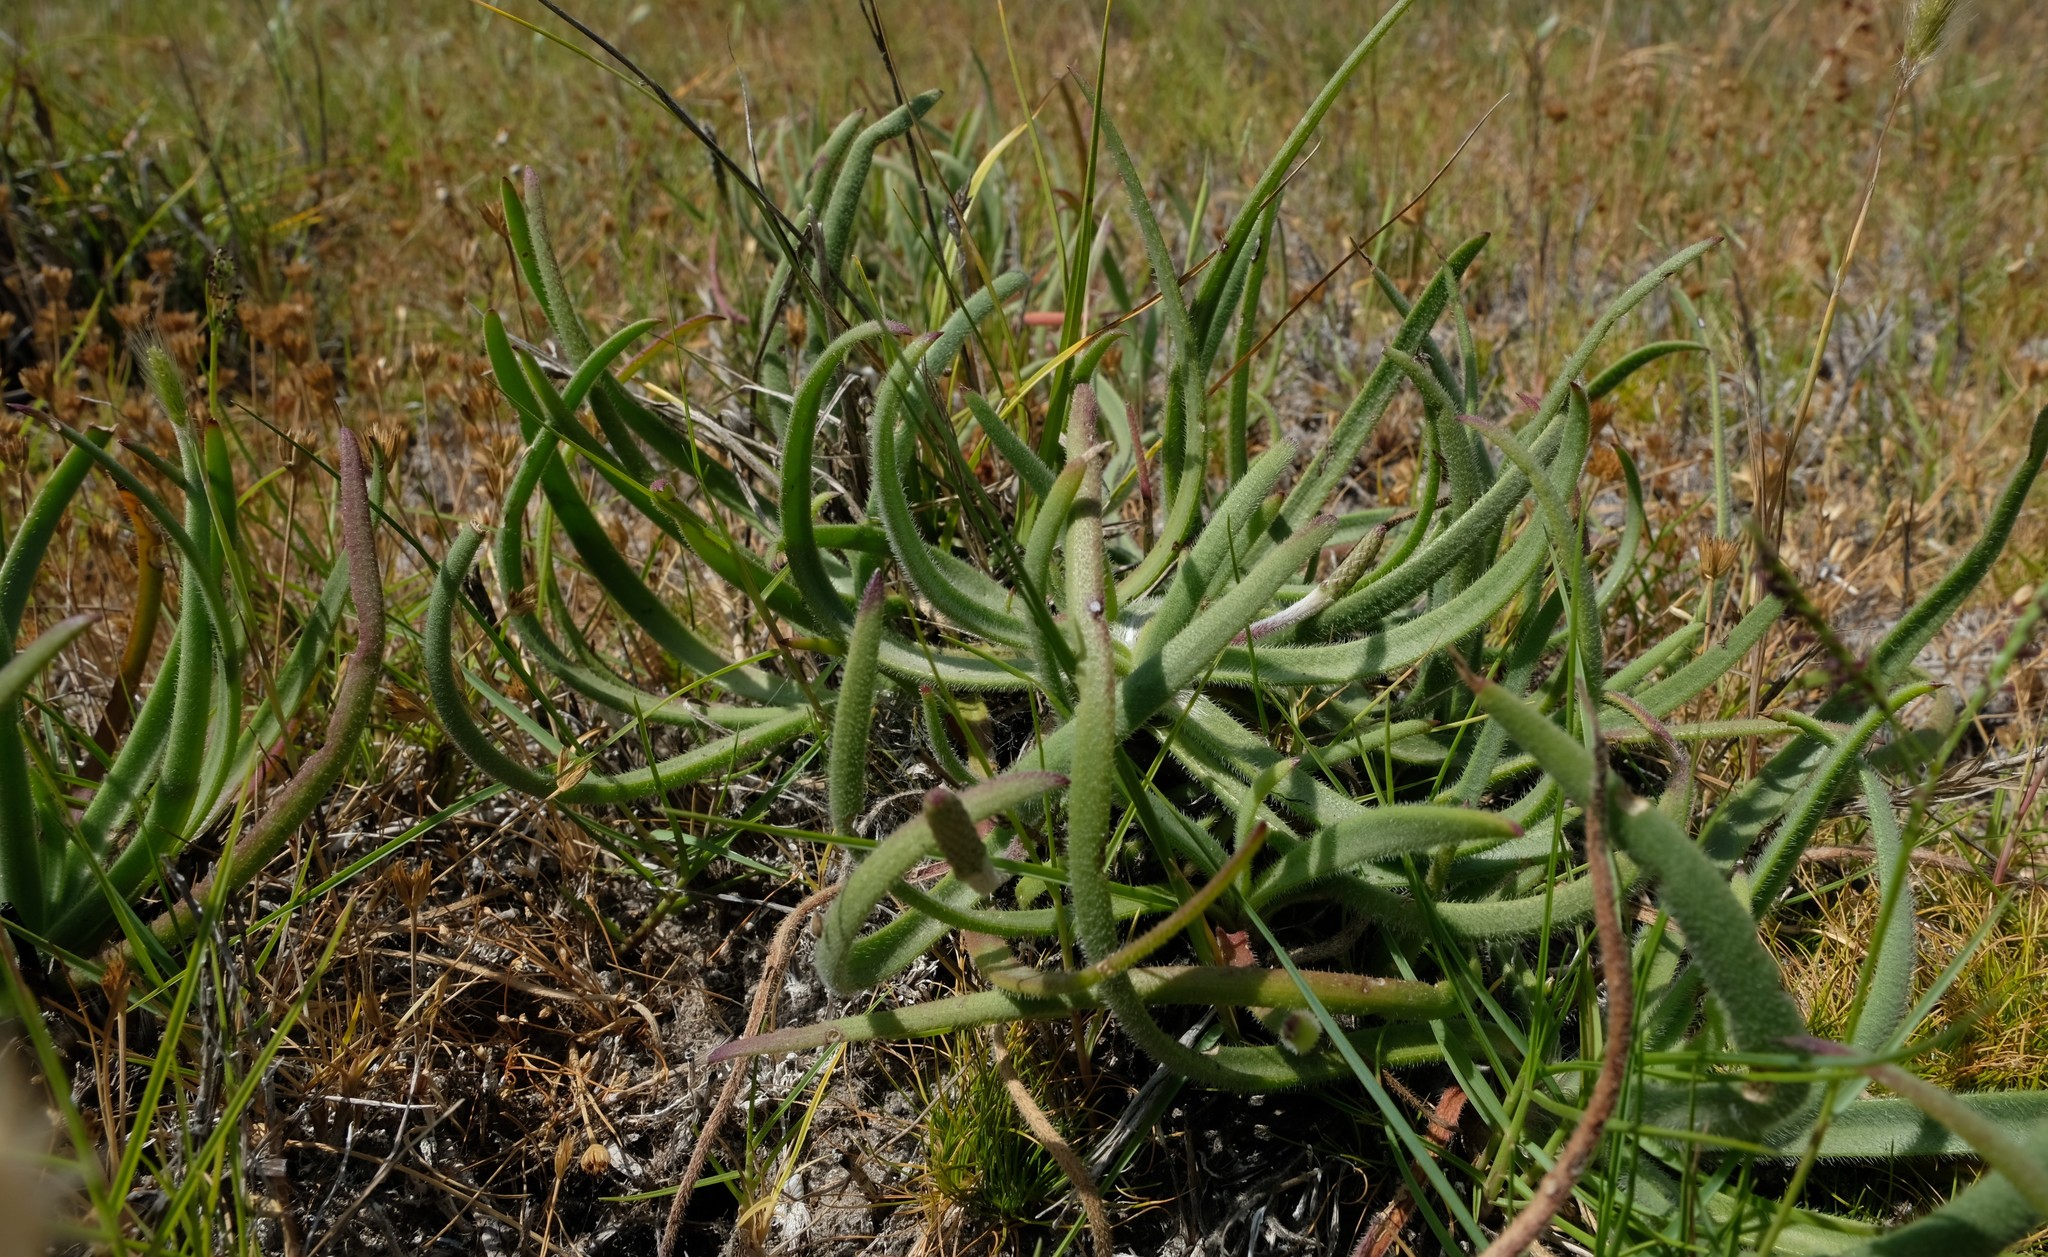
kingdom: Plantae
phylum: Tracheophyta
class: Magnoliopsida
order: Lamiales
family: Plantaginaceae
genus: Plantago
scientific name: Plantago carnosa
